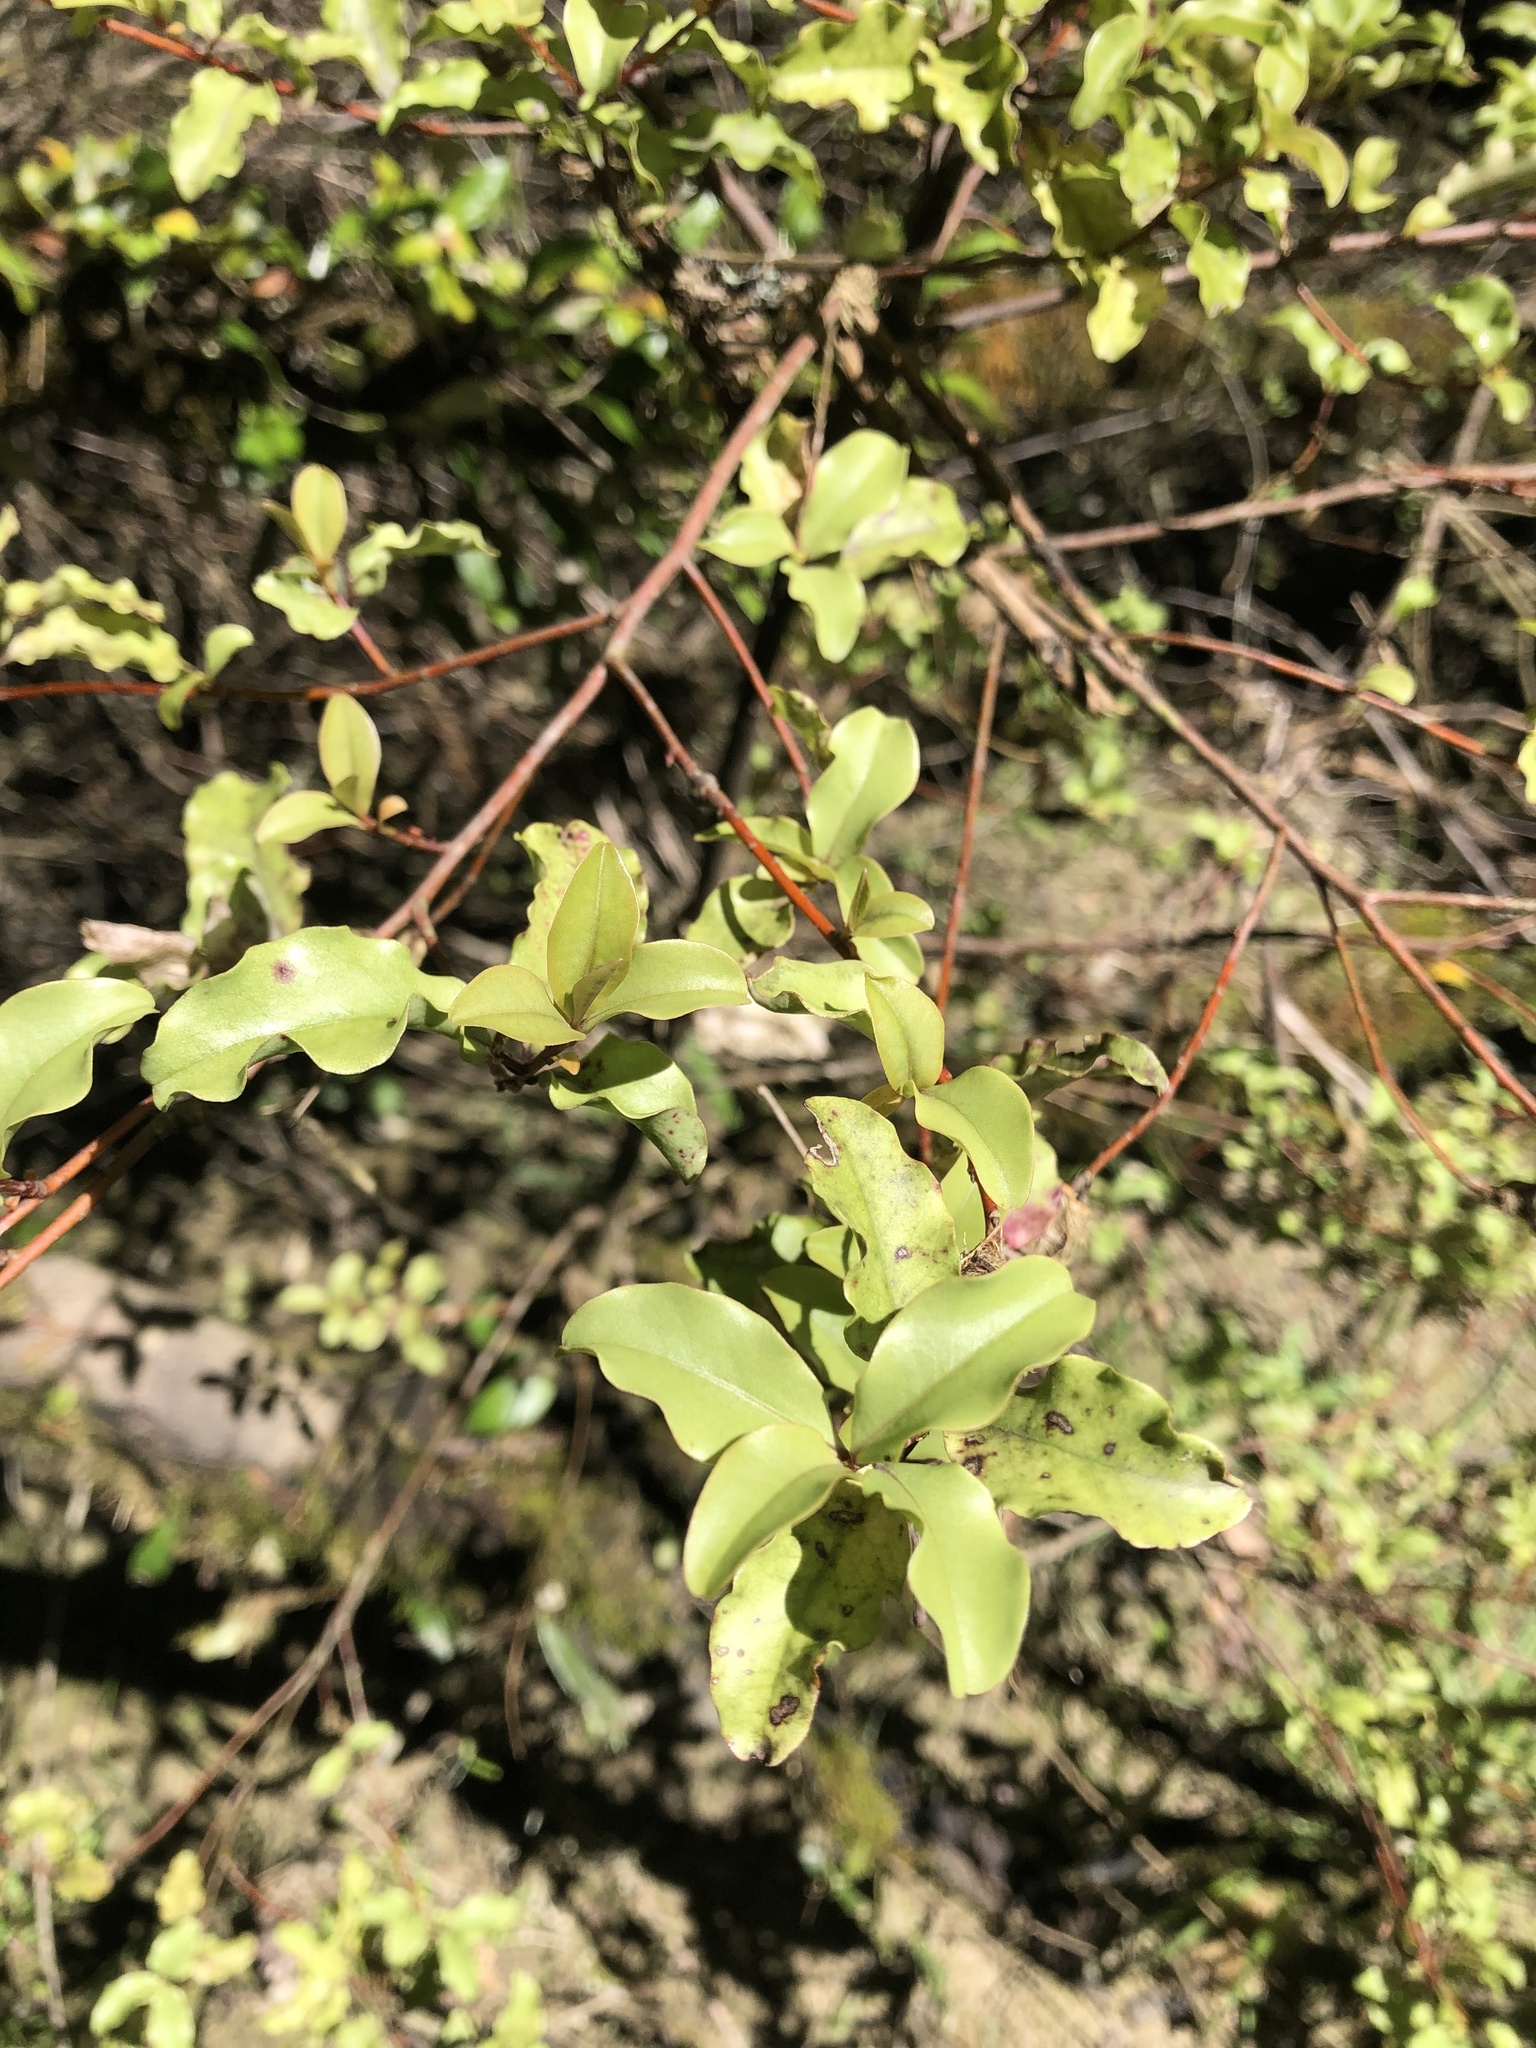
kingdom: Plantae
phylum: Tracheophyta
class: Magnoliopsida
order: Ericales
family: Primulaceae
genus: Myrsine
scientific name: Myrsine australis
